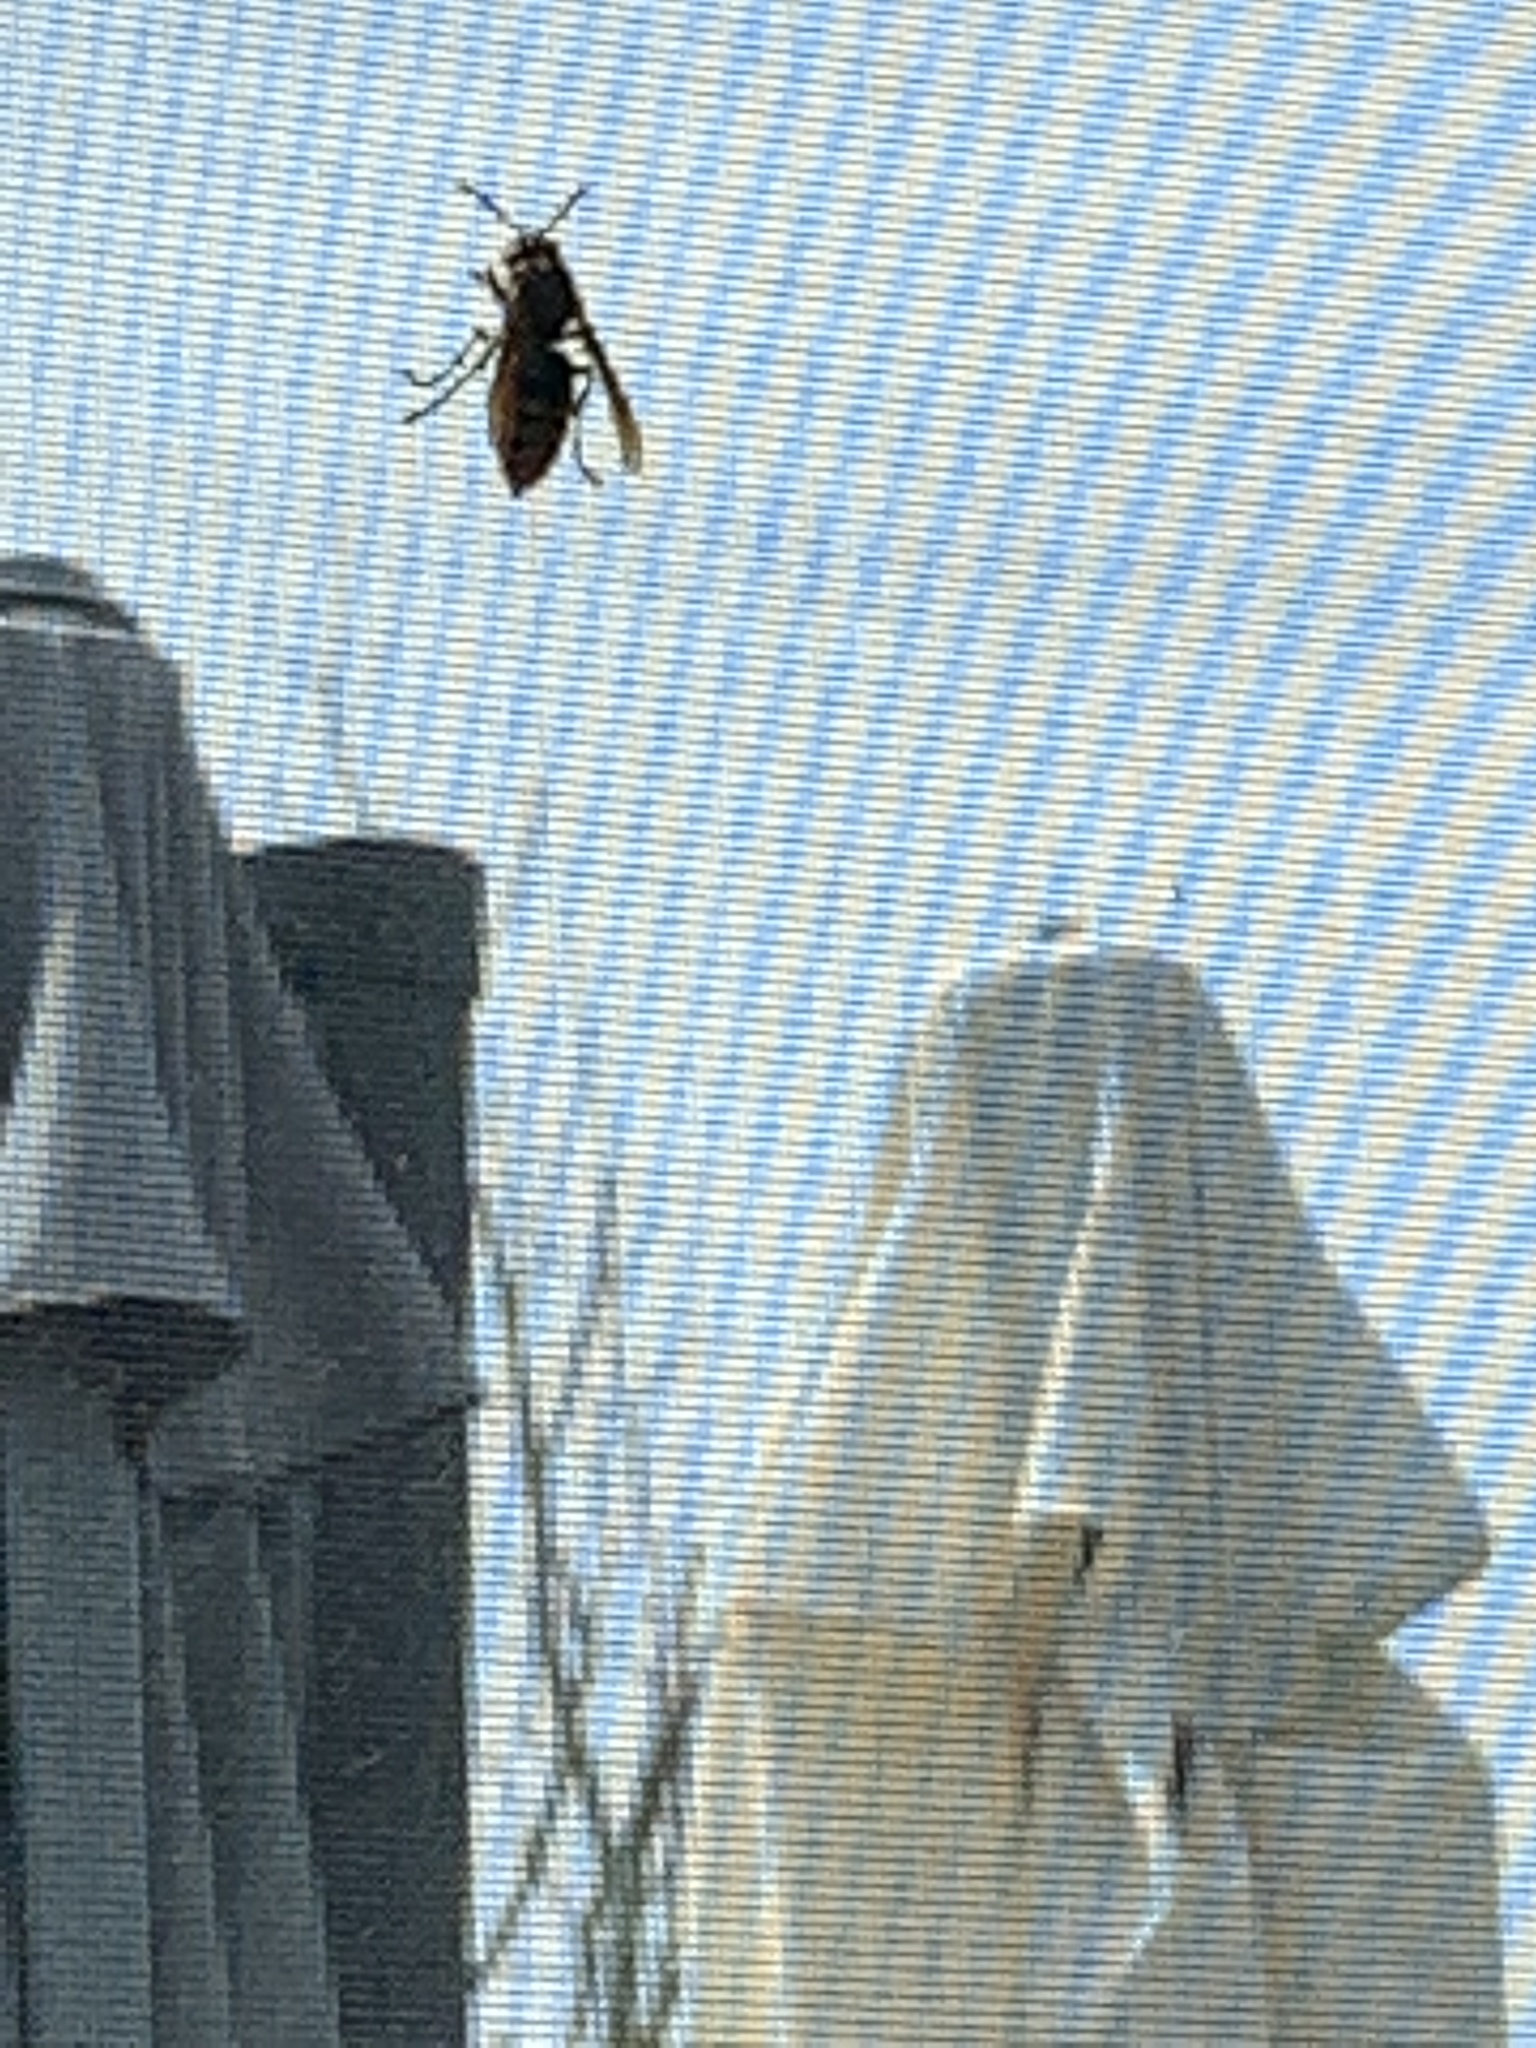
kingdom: Animalia
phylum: Arthropoda
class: Insecta
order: Hymenoptera
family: Vespidae
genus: Vespa
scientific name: Vespa crabro
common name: Hornet
